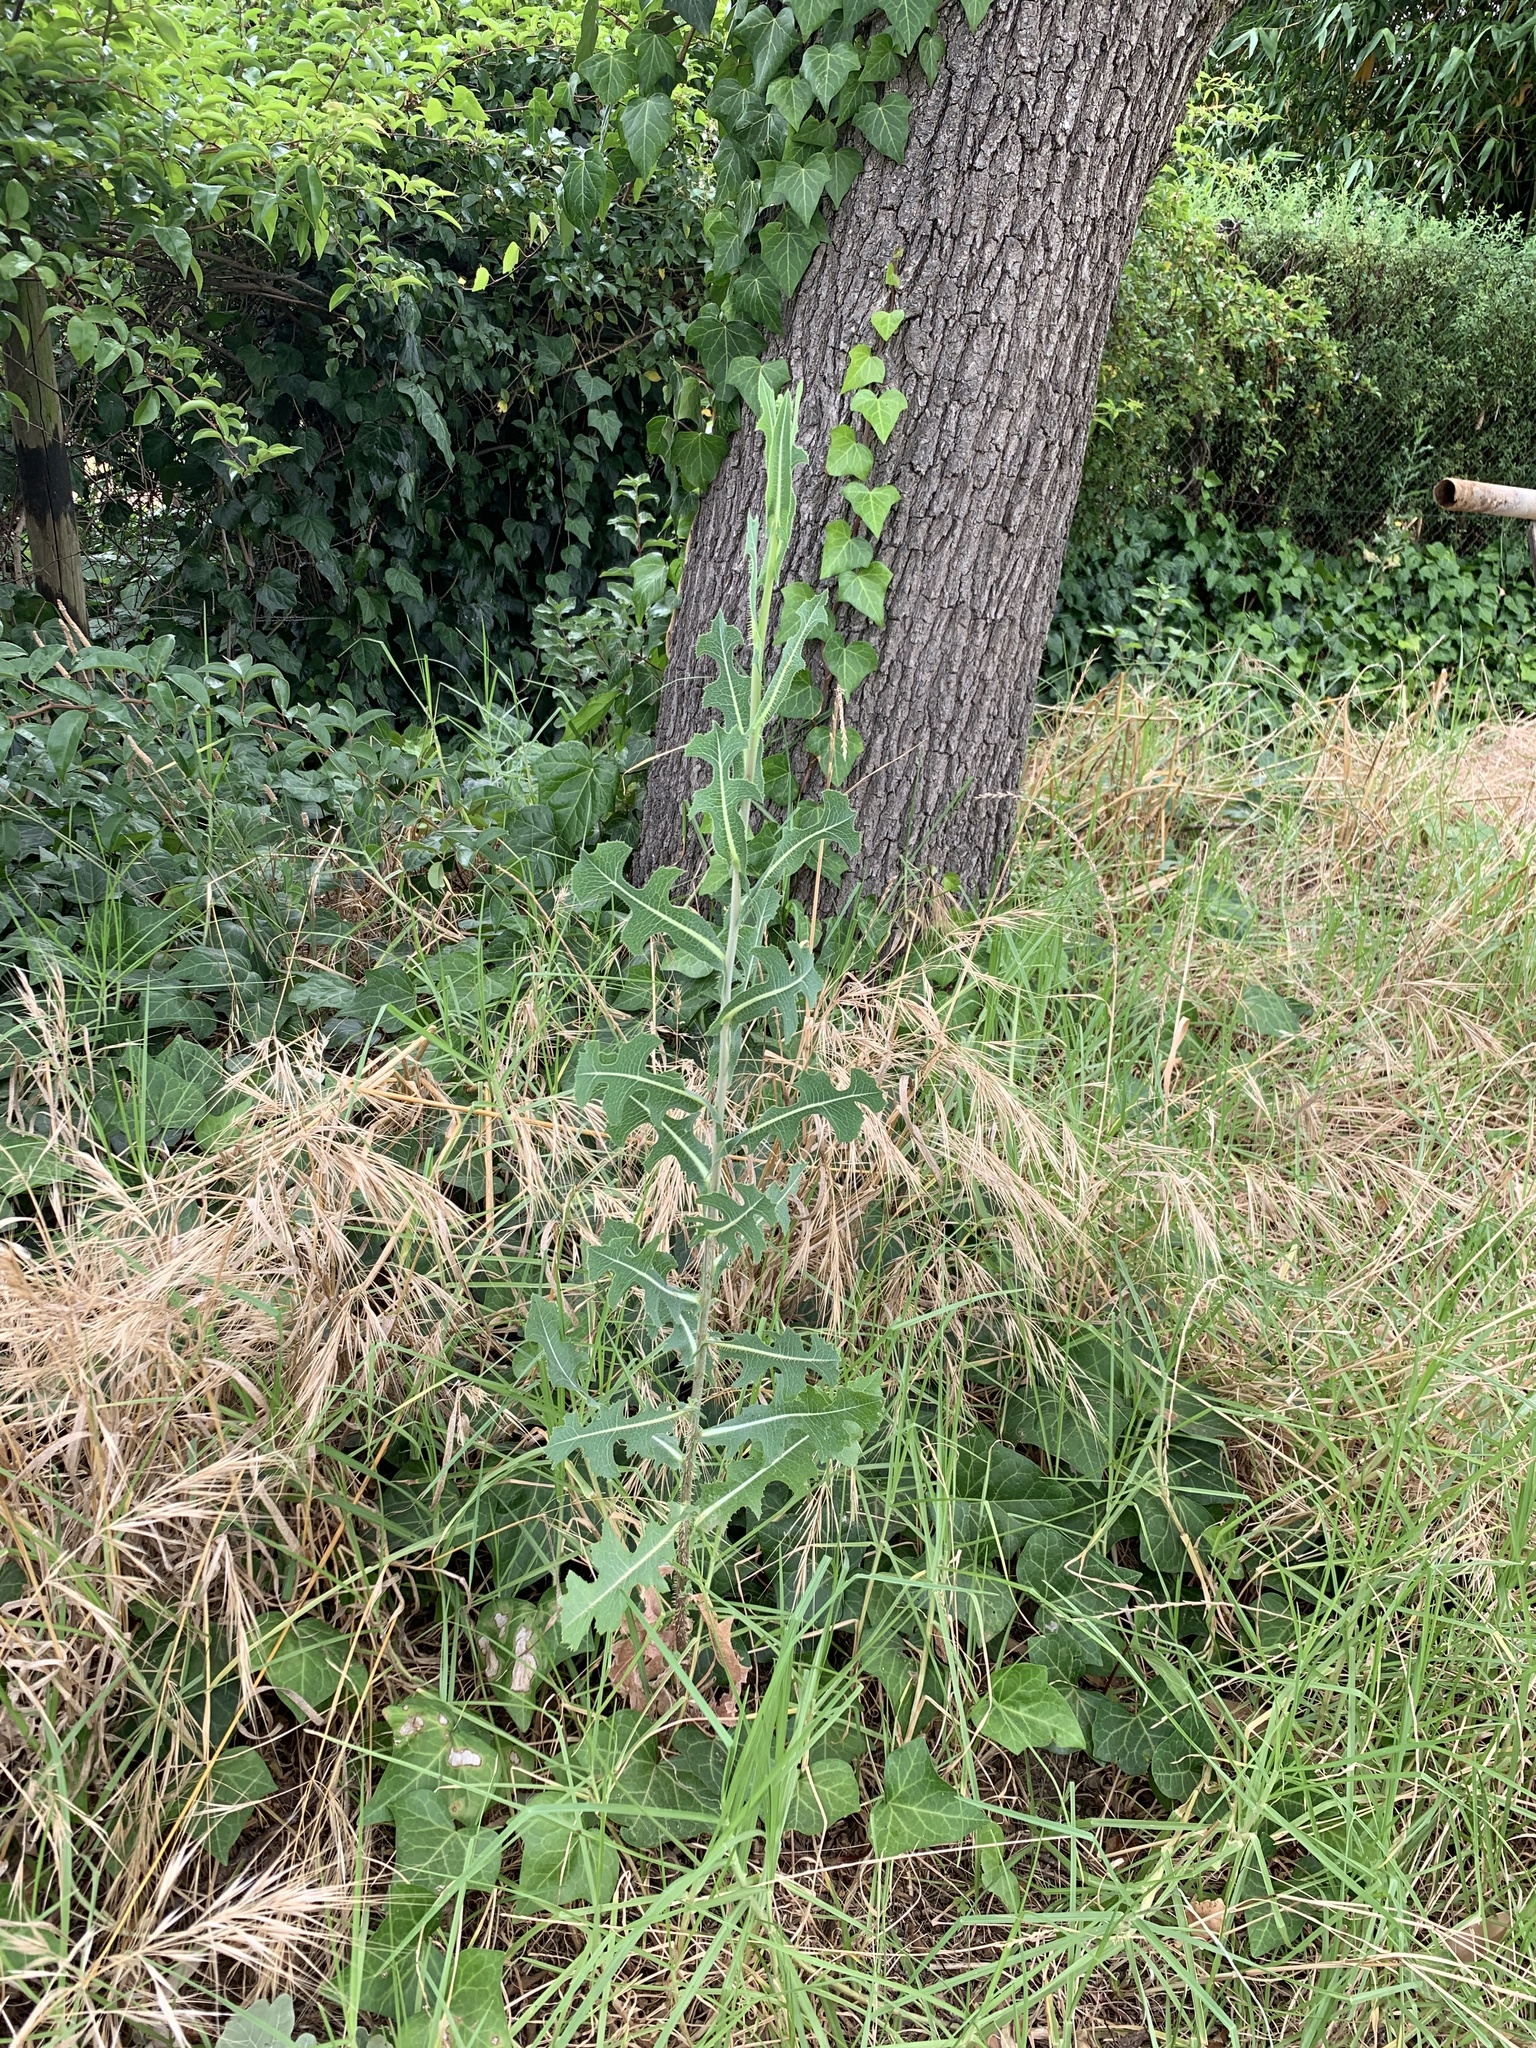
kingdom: Plantae
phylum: Tracheophyta
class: Magnoliopsida
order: Asterales
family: Asteraceae
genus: Lactuca
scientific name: Lactuca serriola
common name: Prickly lettuce
